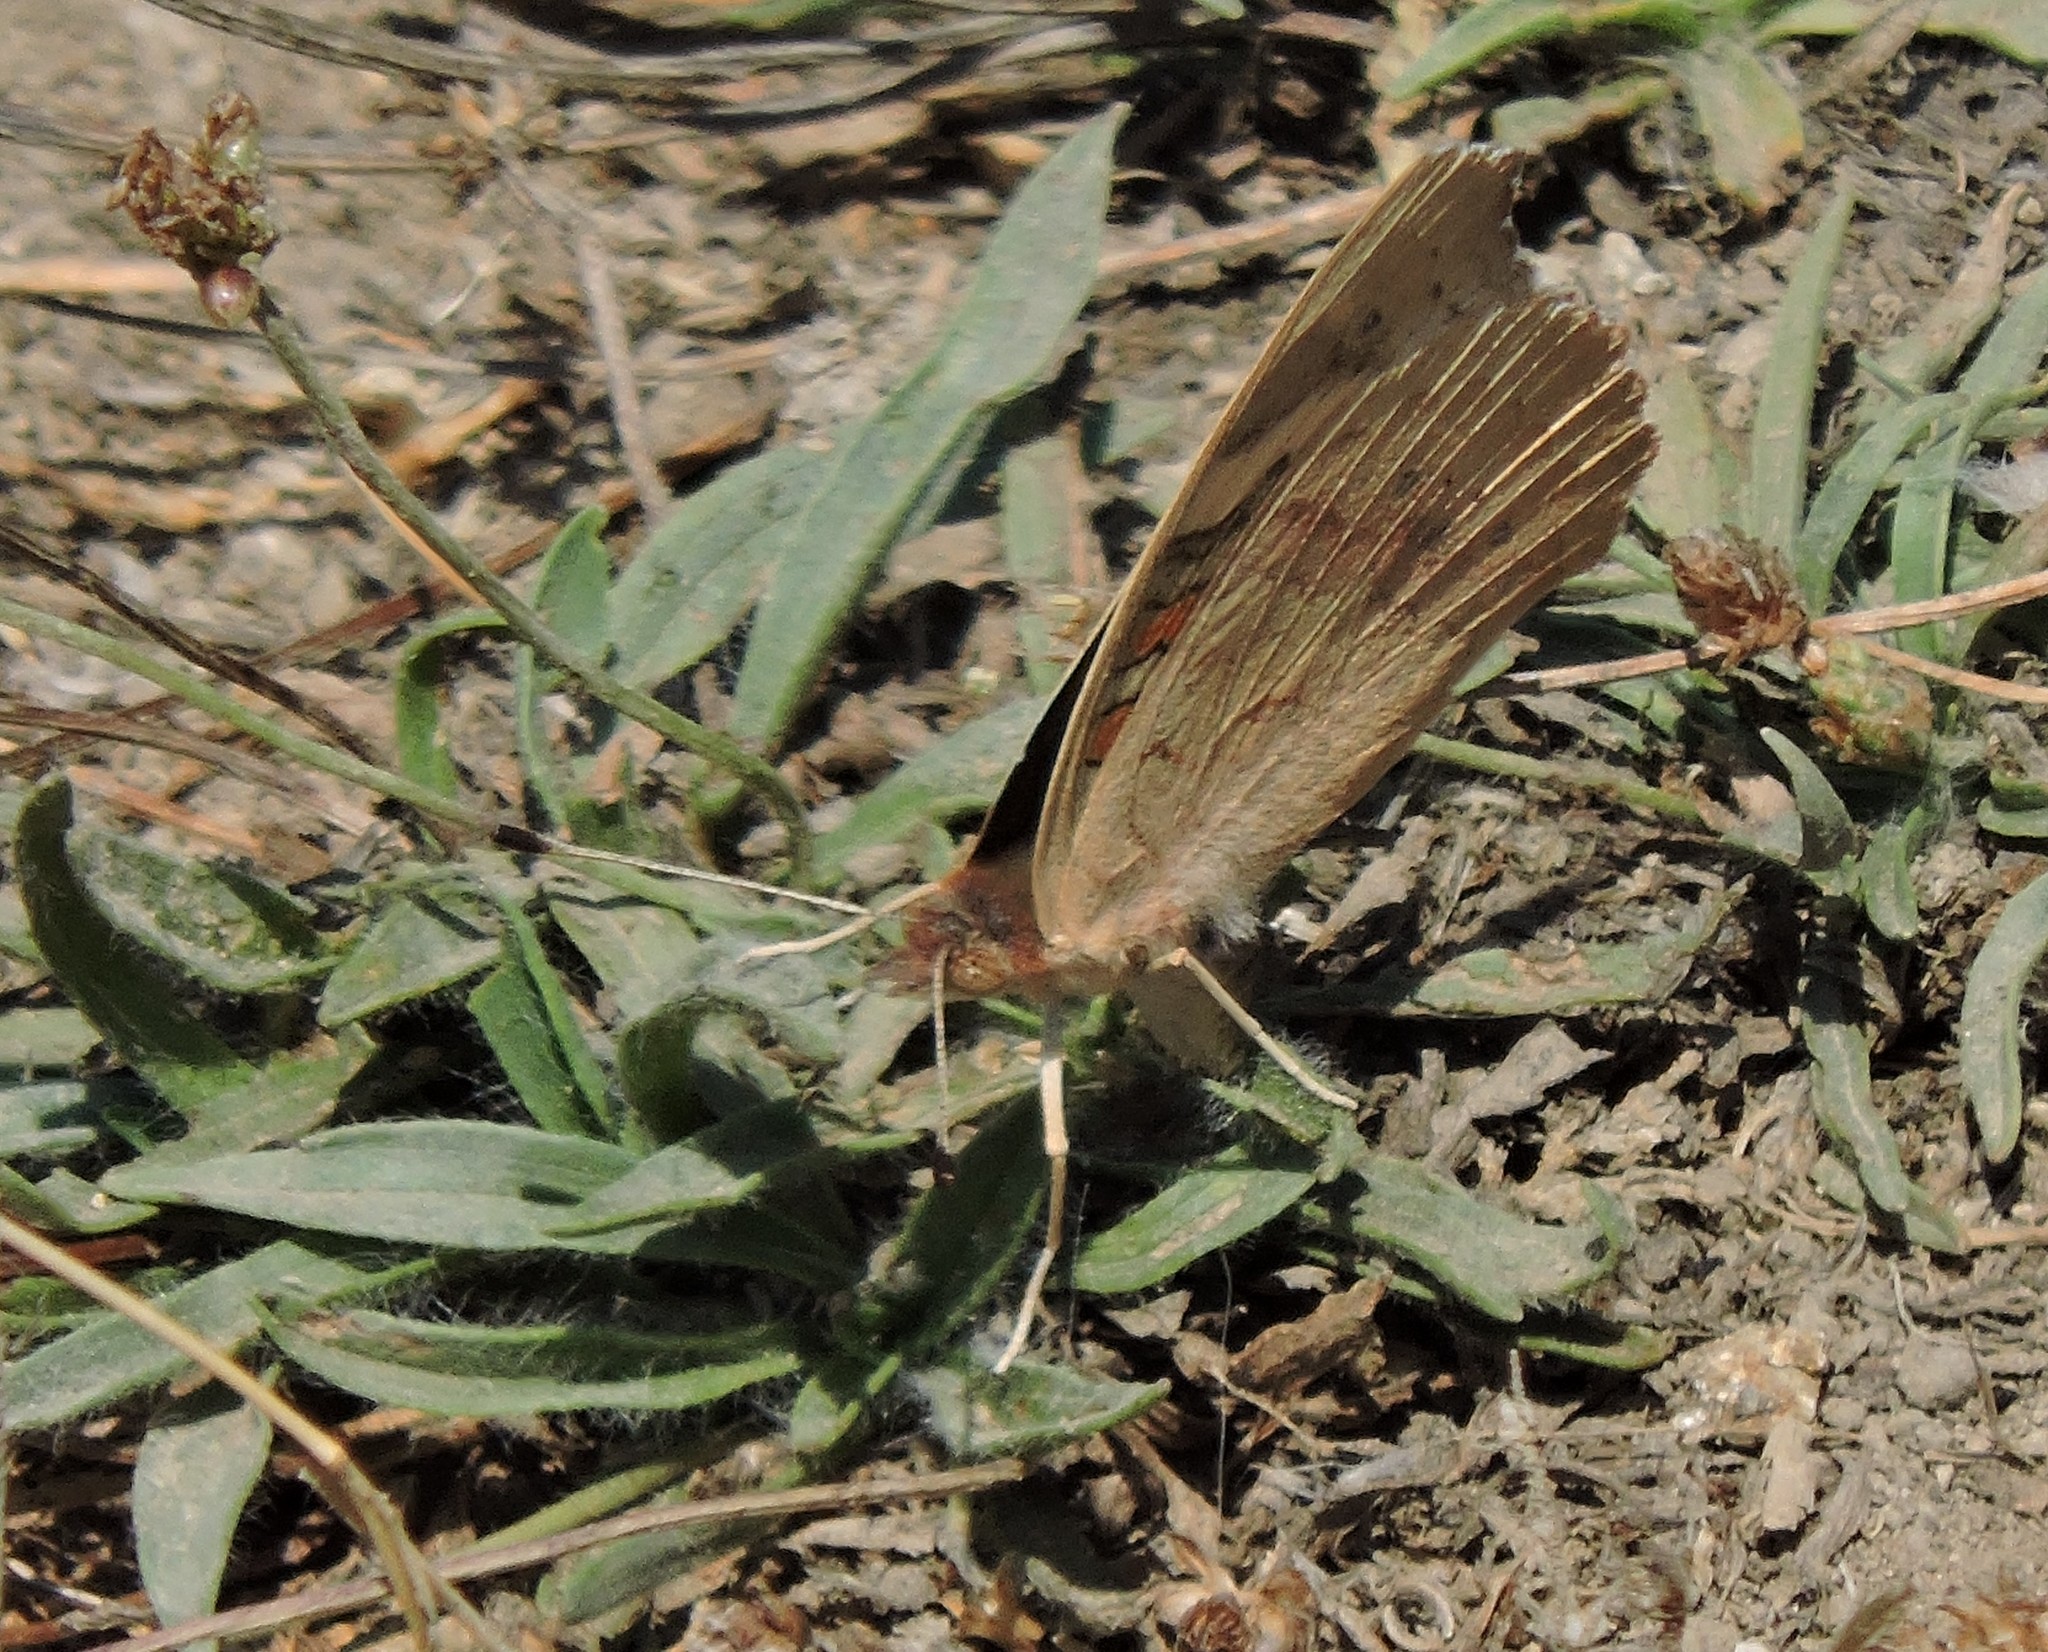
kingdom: Animalia
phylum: Arthropoda
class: Insecta
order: Lepidoptera
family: Nymphalidae
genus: Junonia
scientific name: Junonia grisea
